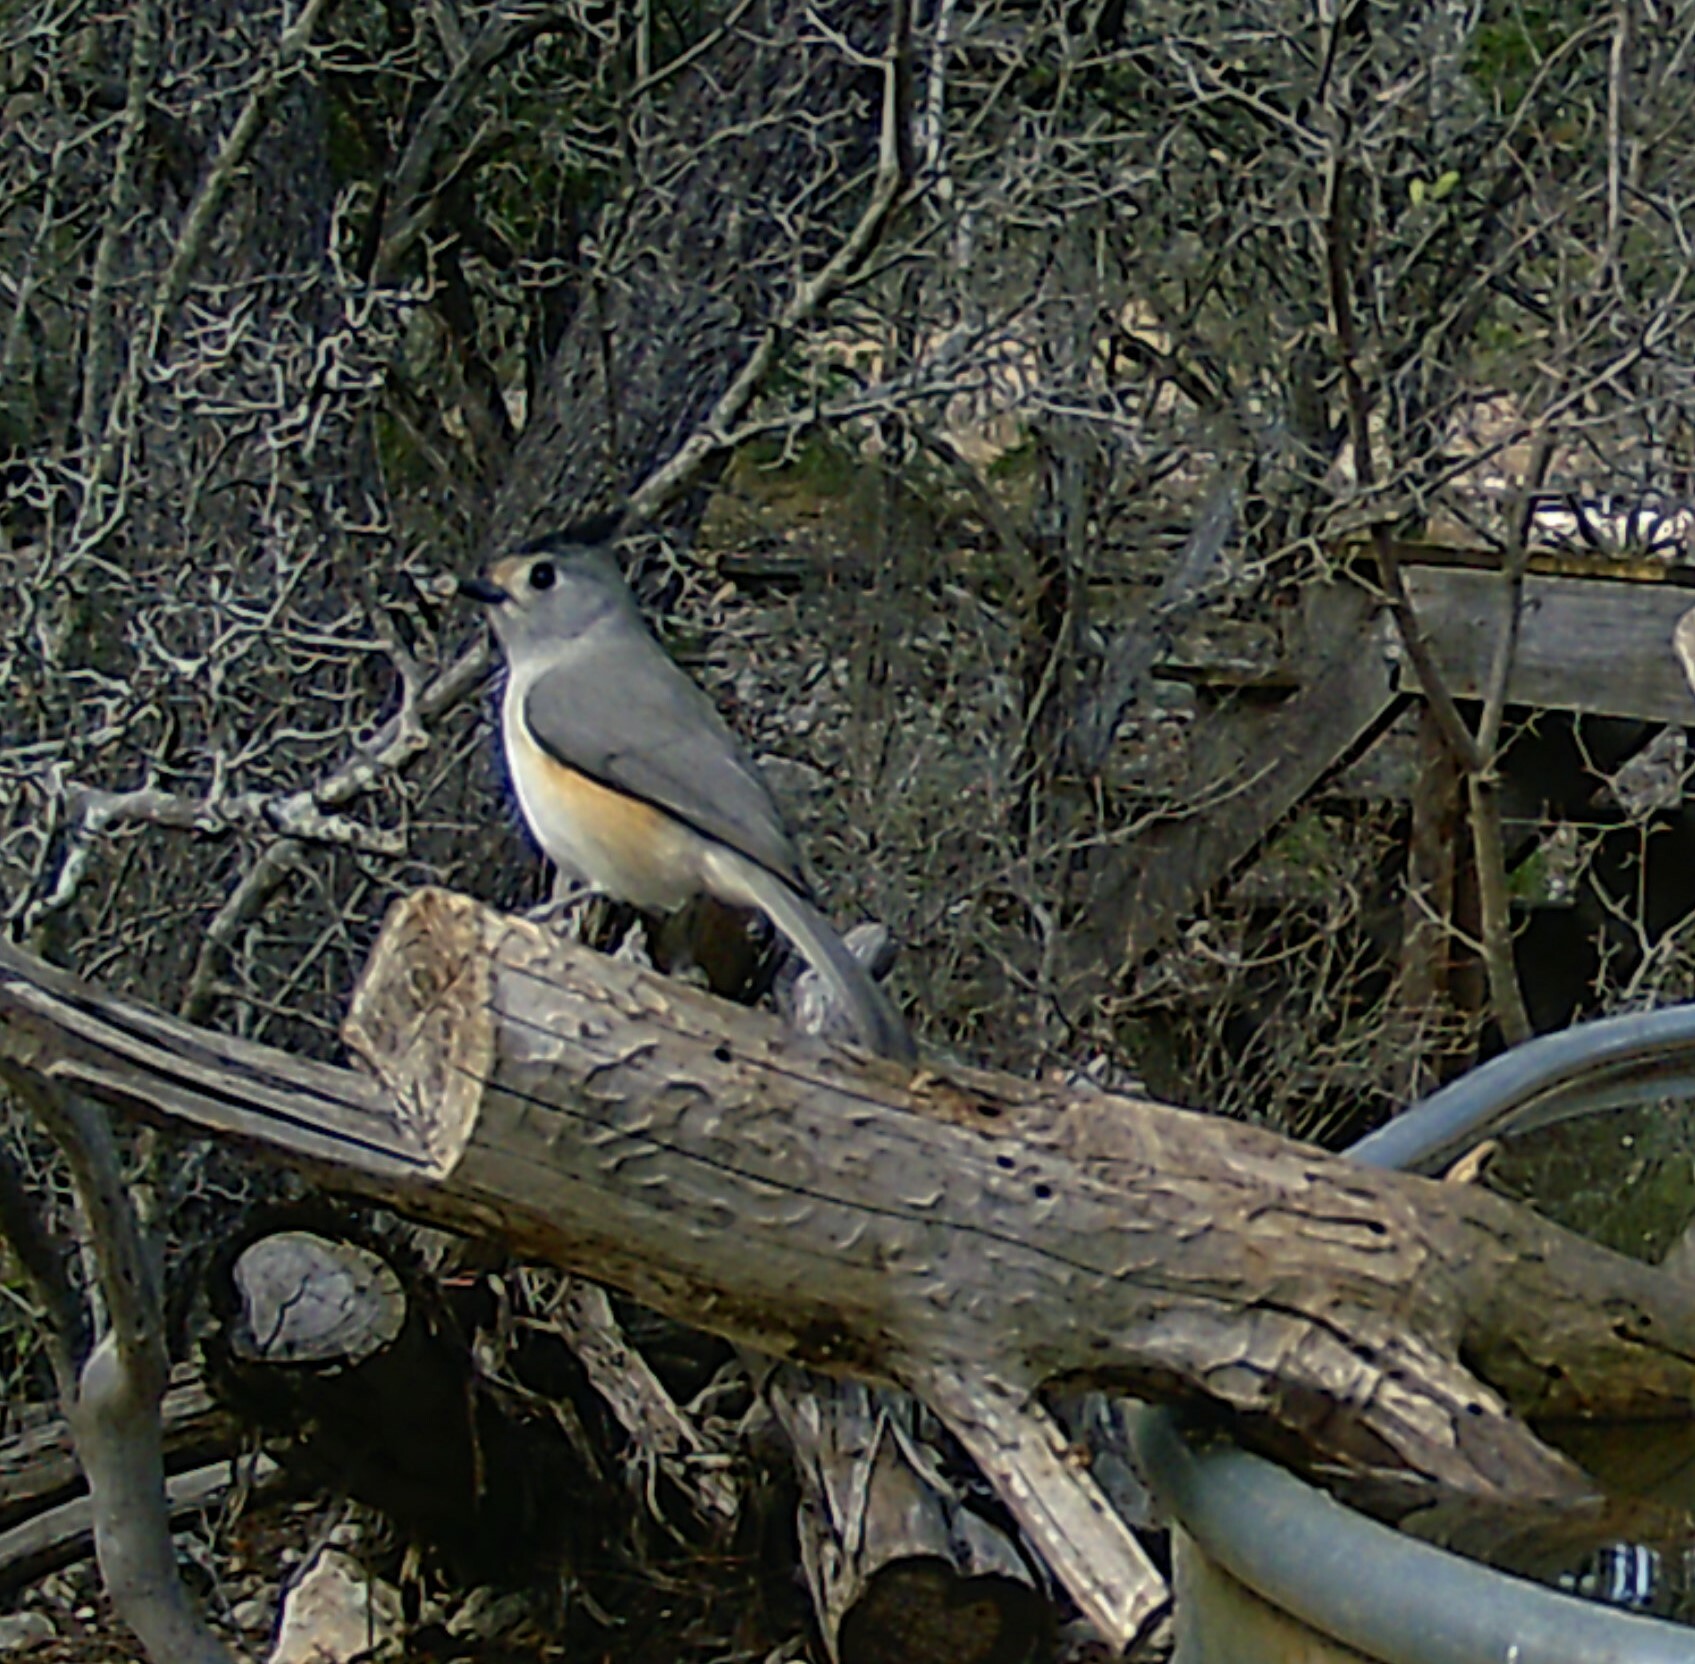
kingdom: Animalia
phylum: Chordata
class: Aves
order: Passeriformes
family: Paridae
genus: Baeolophus
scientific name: Baeolophus atricristatus
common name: Black-crested titmouse
